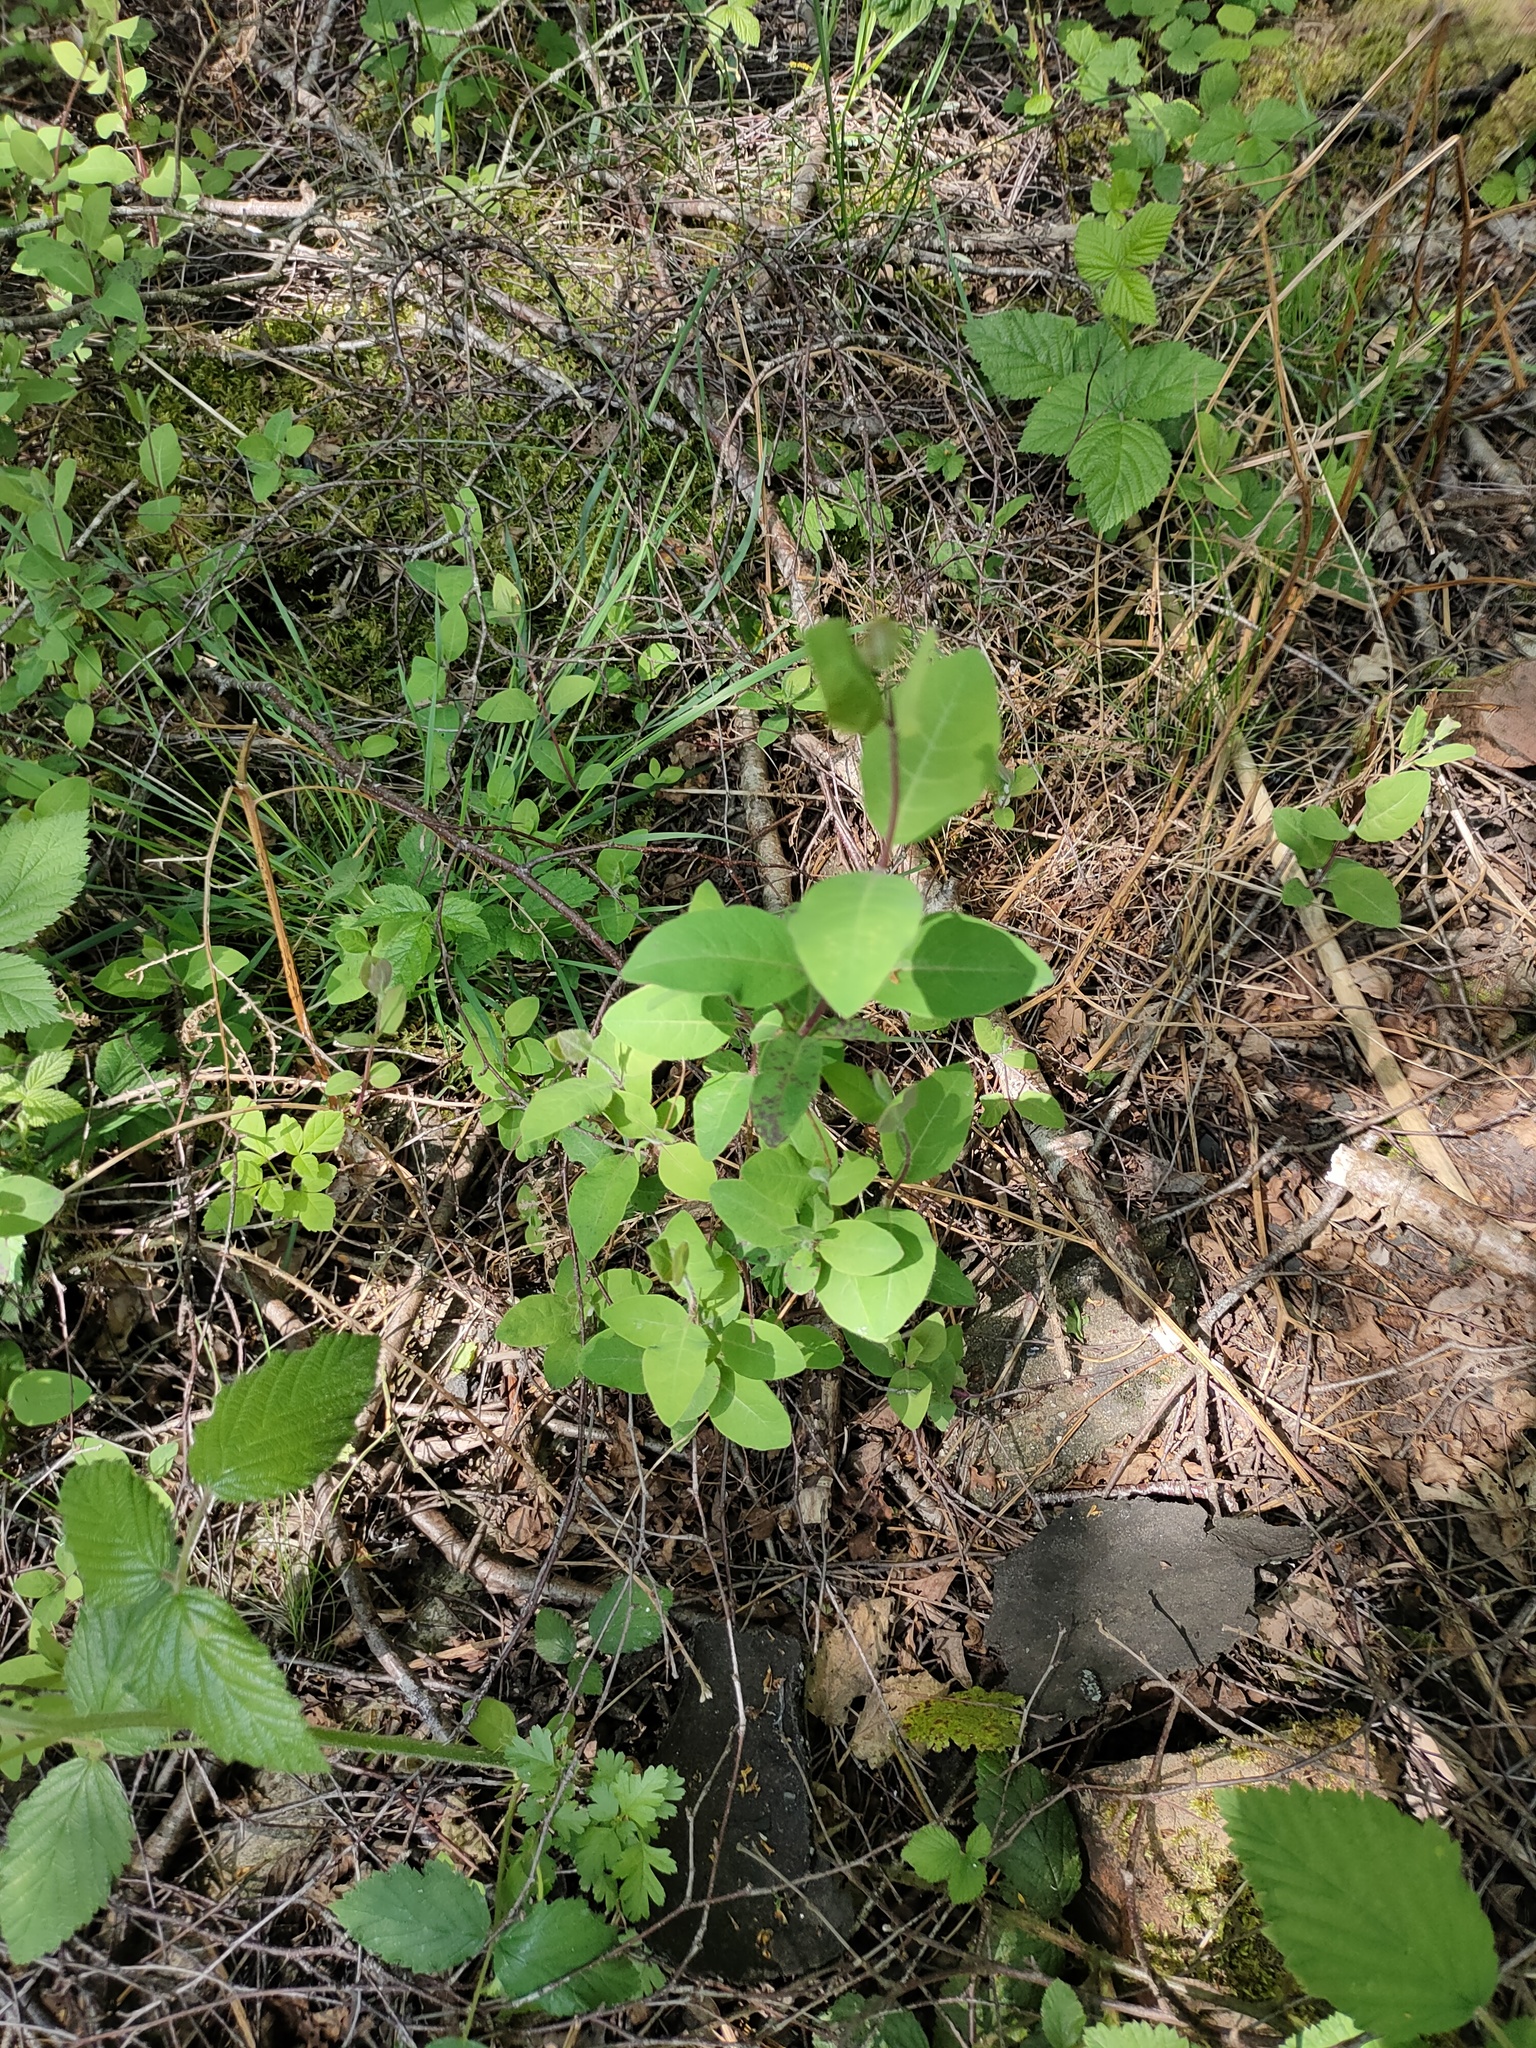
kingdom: Plantae
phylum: Tracheophyta
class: Magnoliopsida
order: Dipsacales
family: Caprifoliaceae
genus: Lonicera
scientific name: Lonicera periclymenum
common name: European honeysuckle
